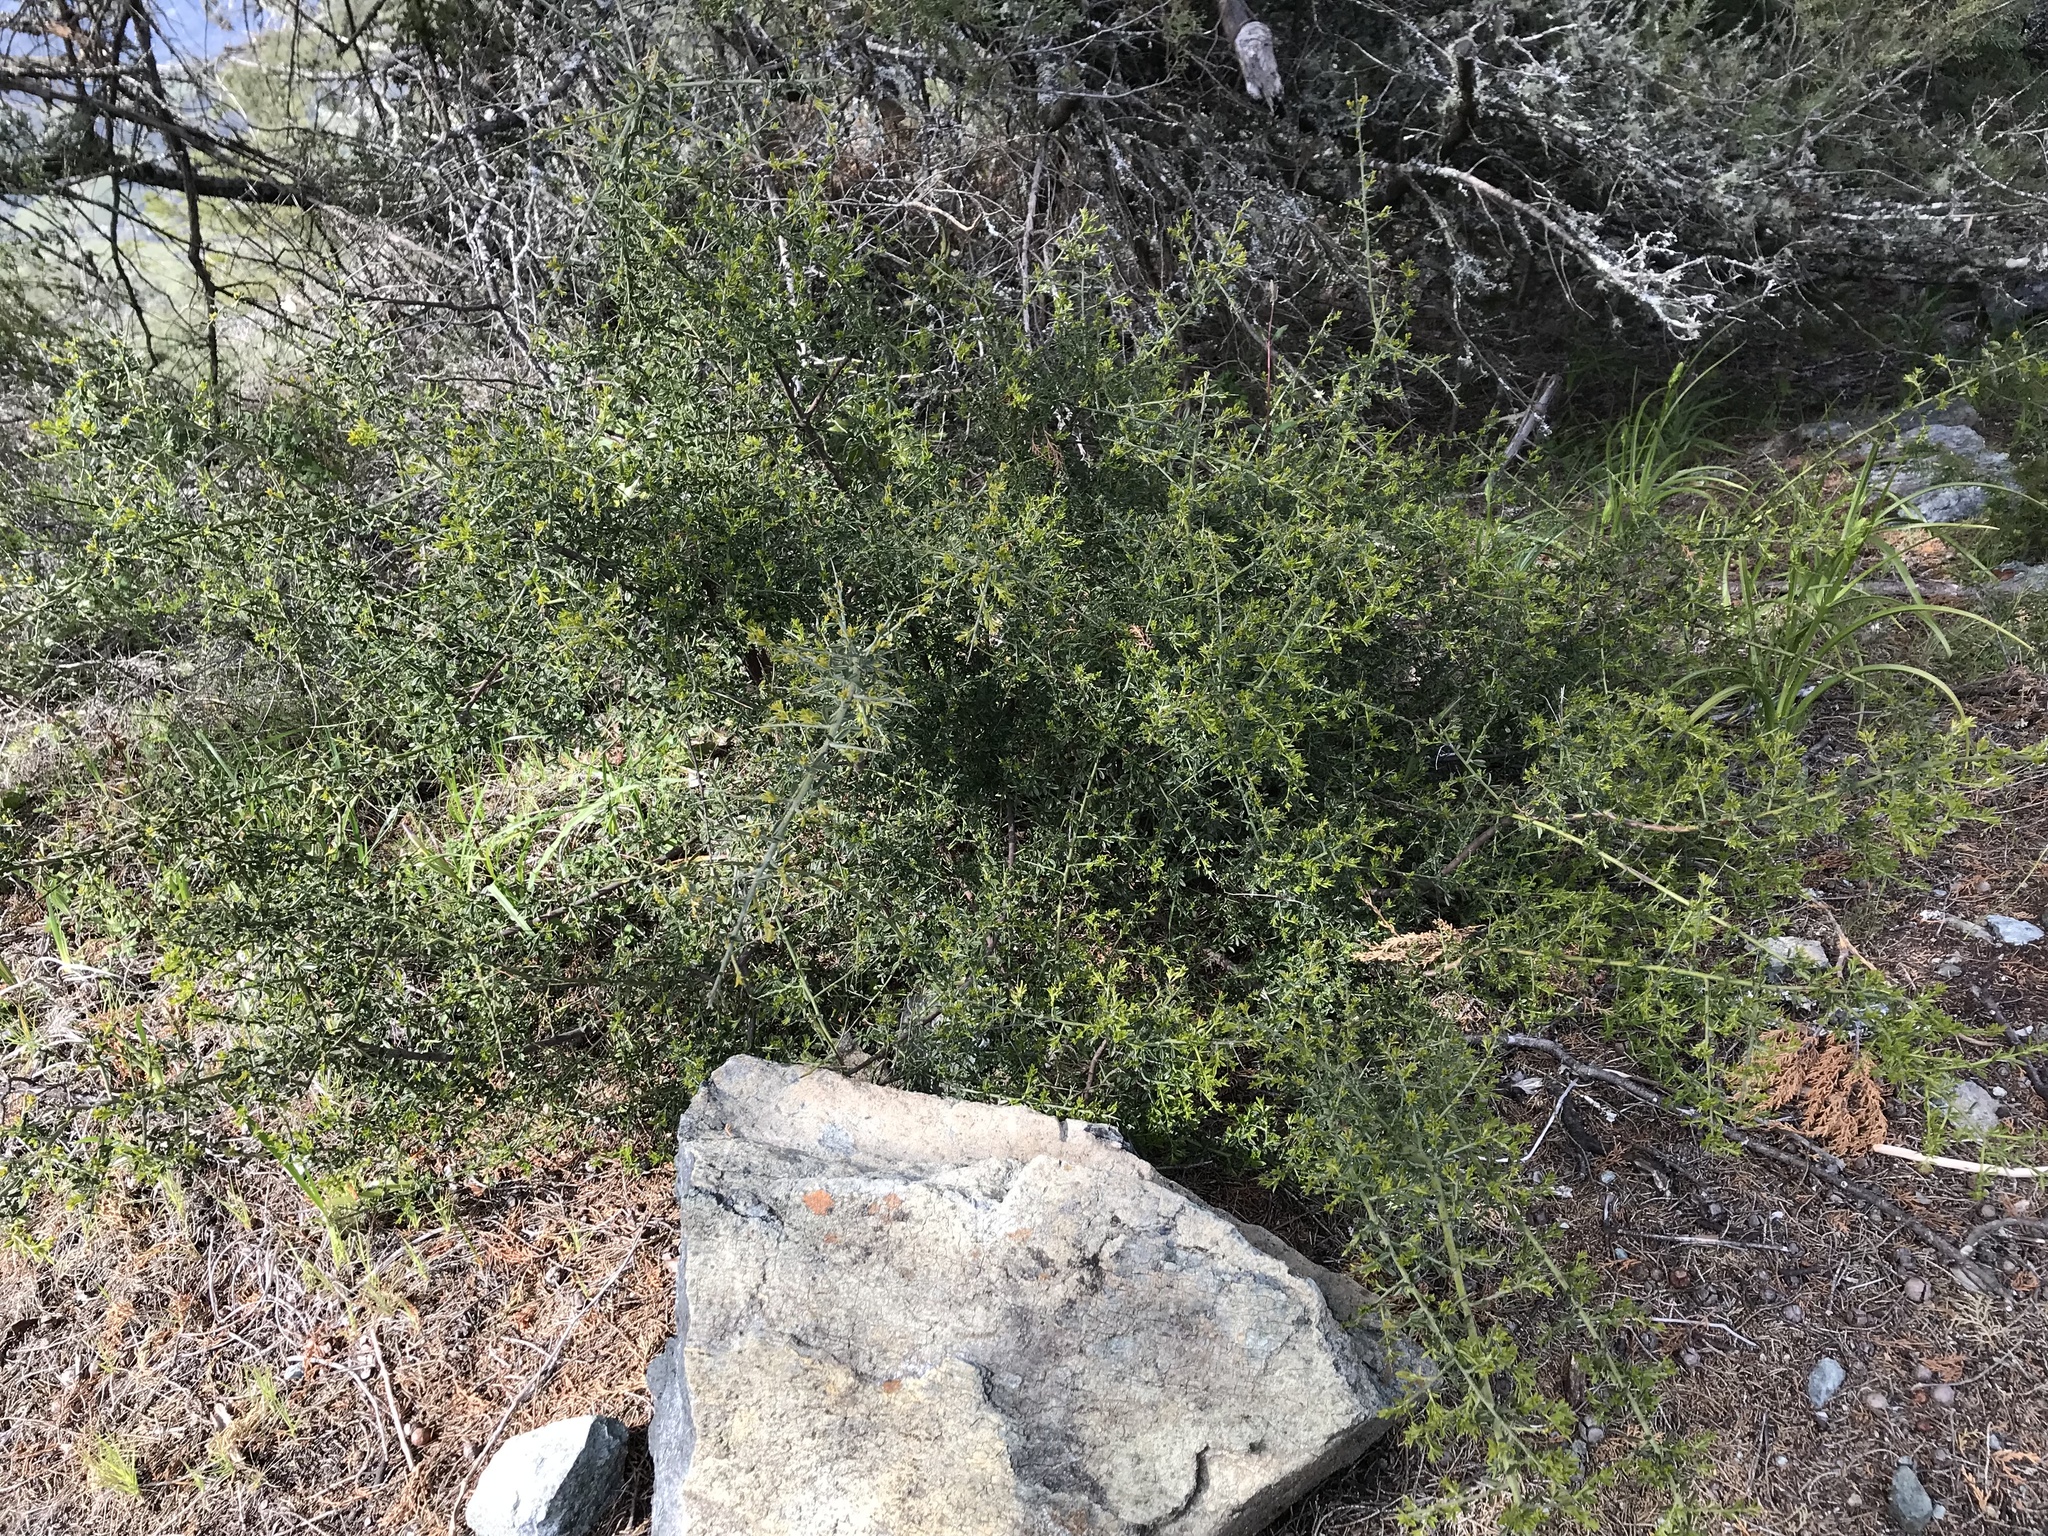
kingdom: Plantae
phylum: Tracheophyta
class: Magnoliopsida
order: Fabales
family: Fabaceae
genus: Pickeringia
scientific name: Pickeringia montana
